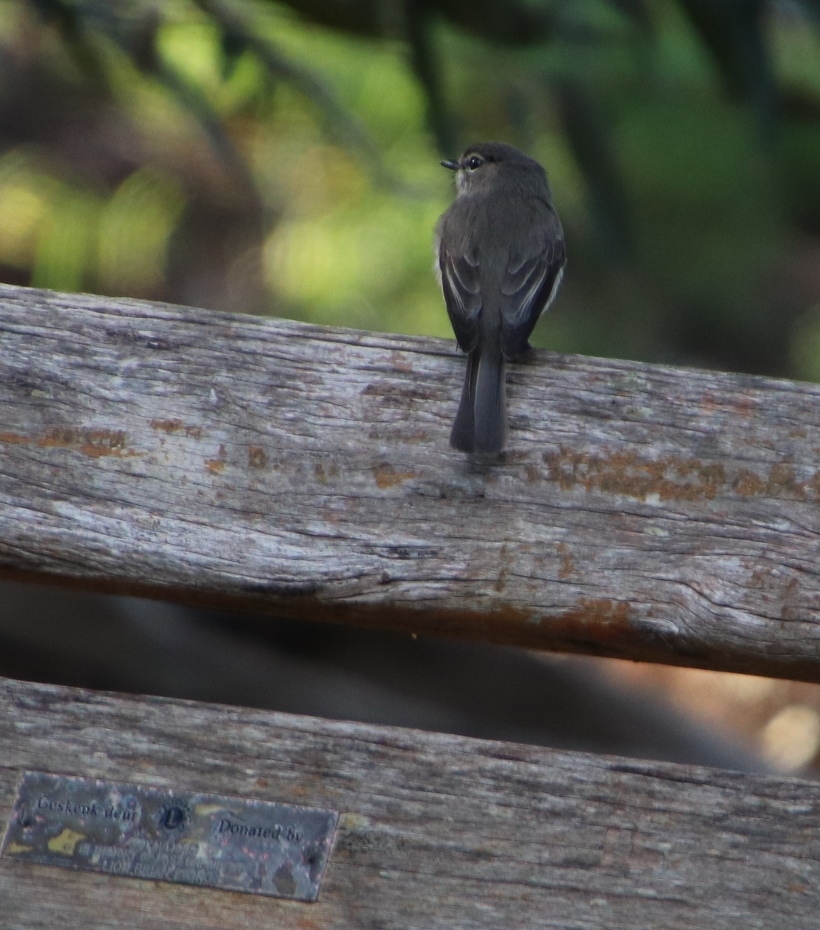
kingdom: Animalia
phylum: Chordata
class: Aves
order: Passeriformes
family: Muscicapidae
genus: Muscicapa
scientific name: Muscicapa adusta
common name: African dusky flycatcher
